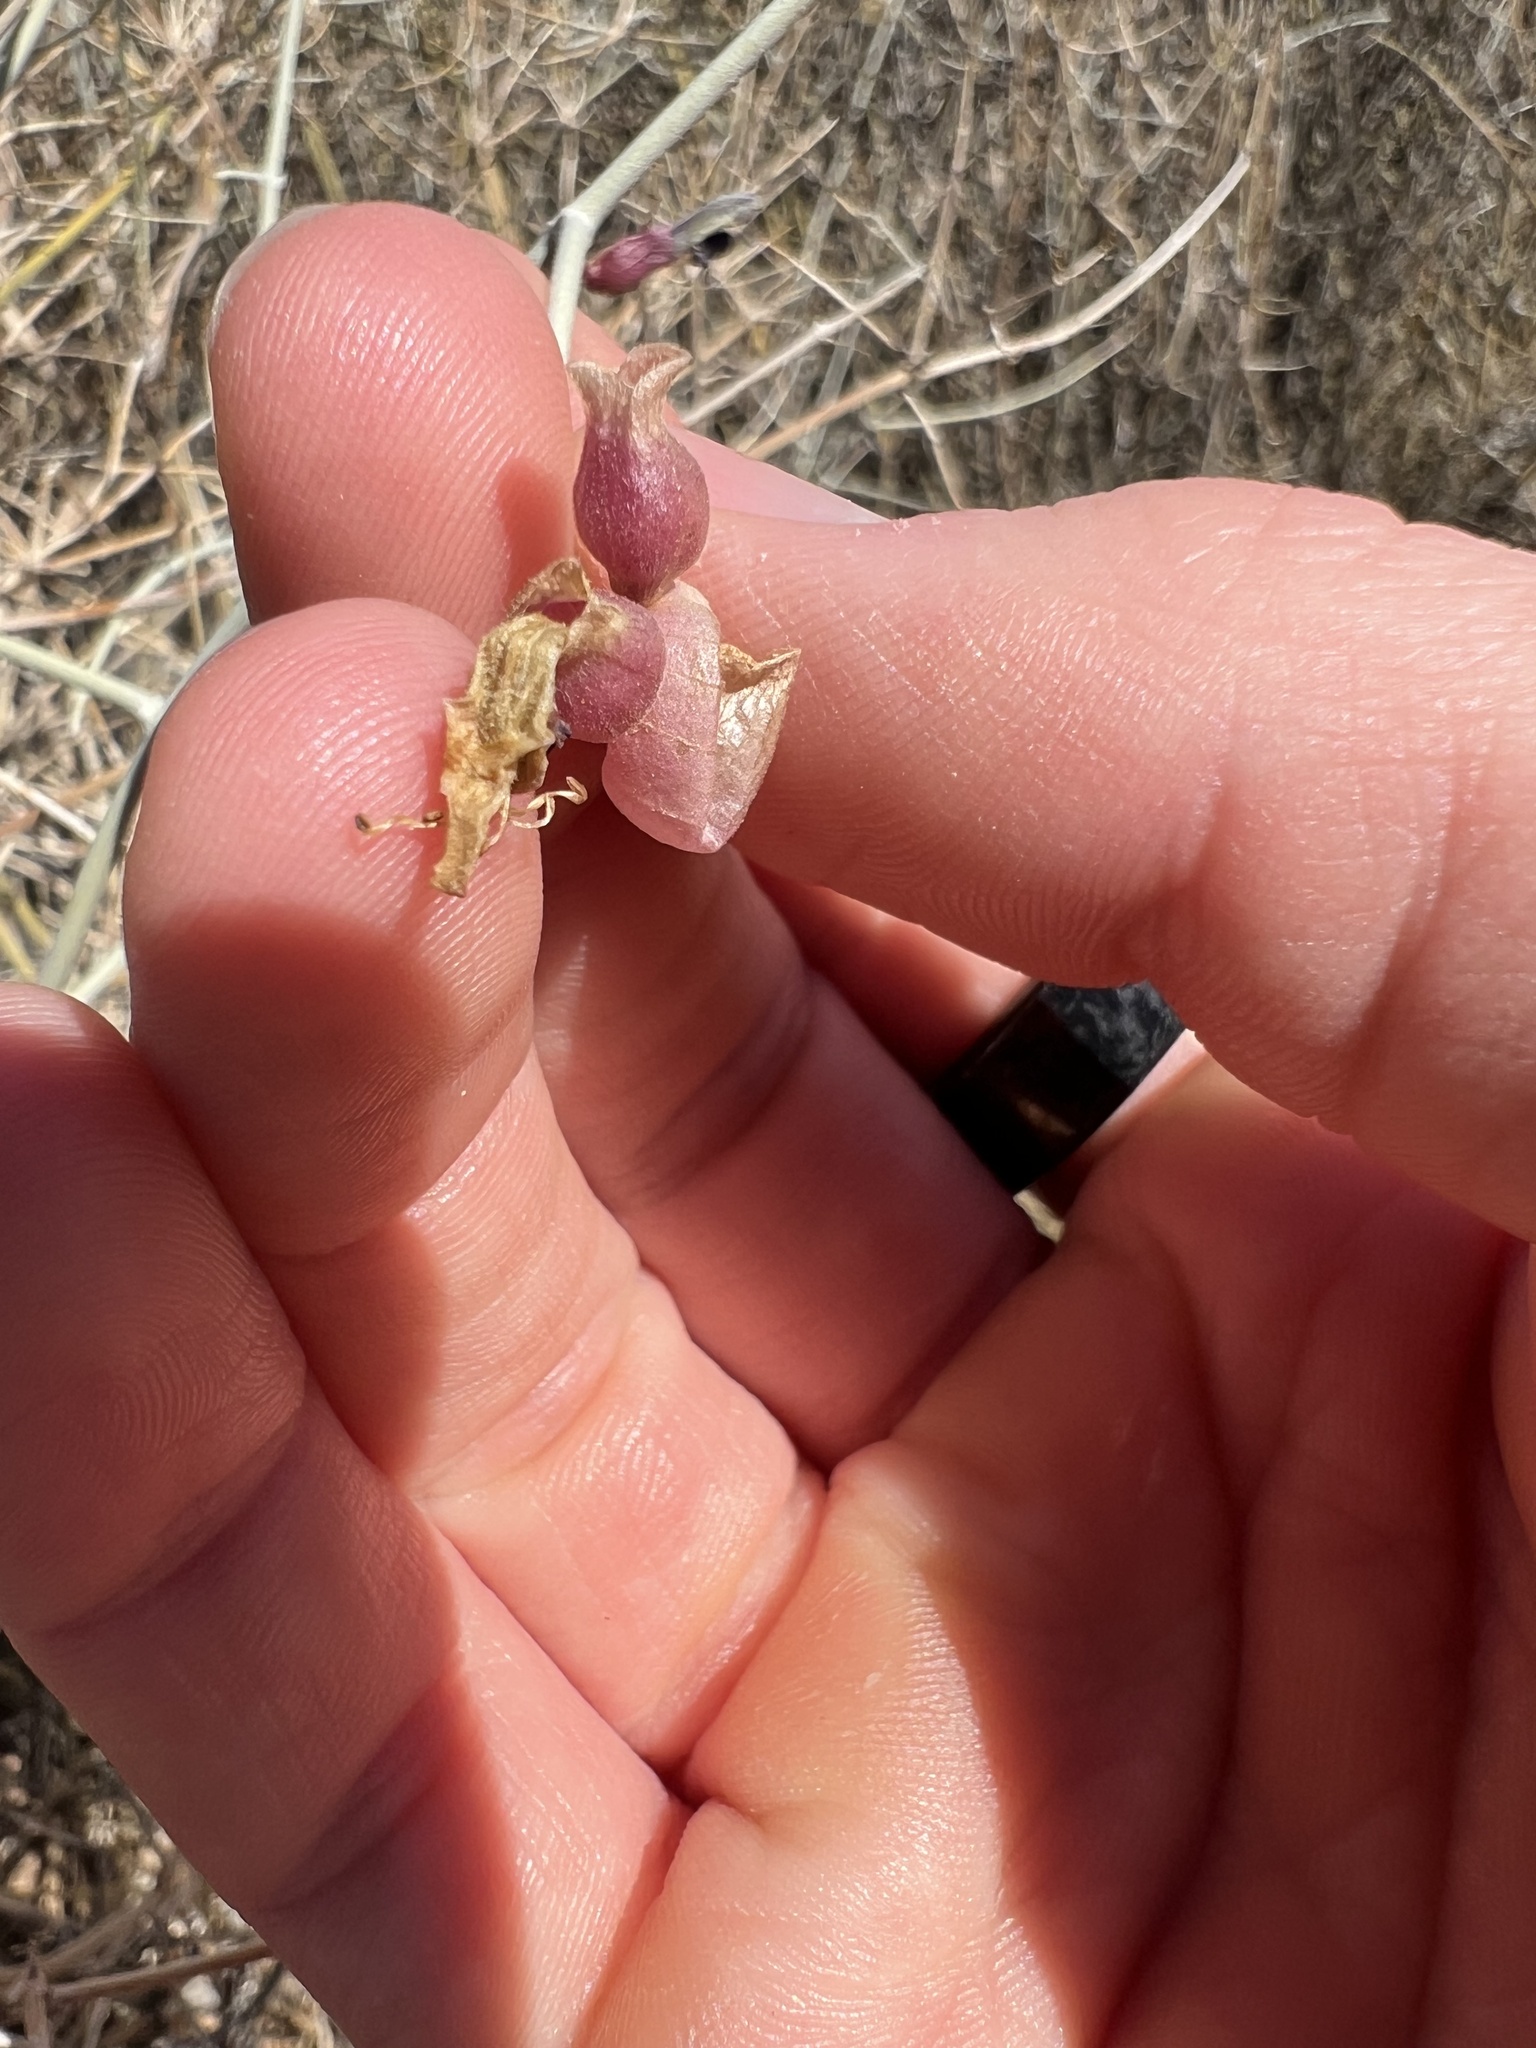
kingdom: Plantae
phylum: Tracheophyta
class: Magnoliopsida
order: Lamiales
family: Lamiaceae
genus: Scutellaria
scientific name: Scutellaria mexicana
